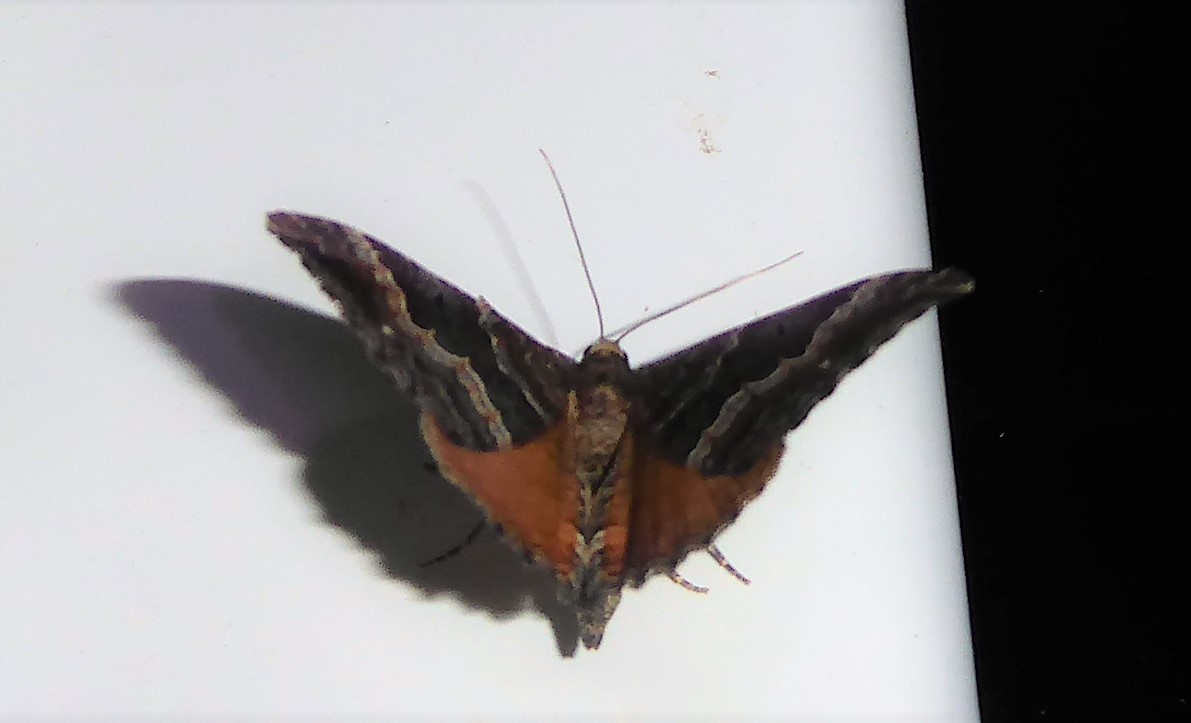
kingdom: Animalia
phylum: Arthropoda
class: Insecta
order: Lepidoptera
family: Geometridae
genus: Hydriomena
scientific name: Hydriomena deltoidata
